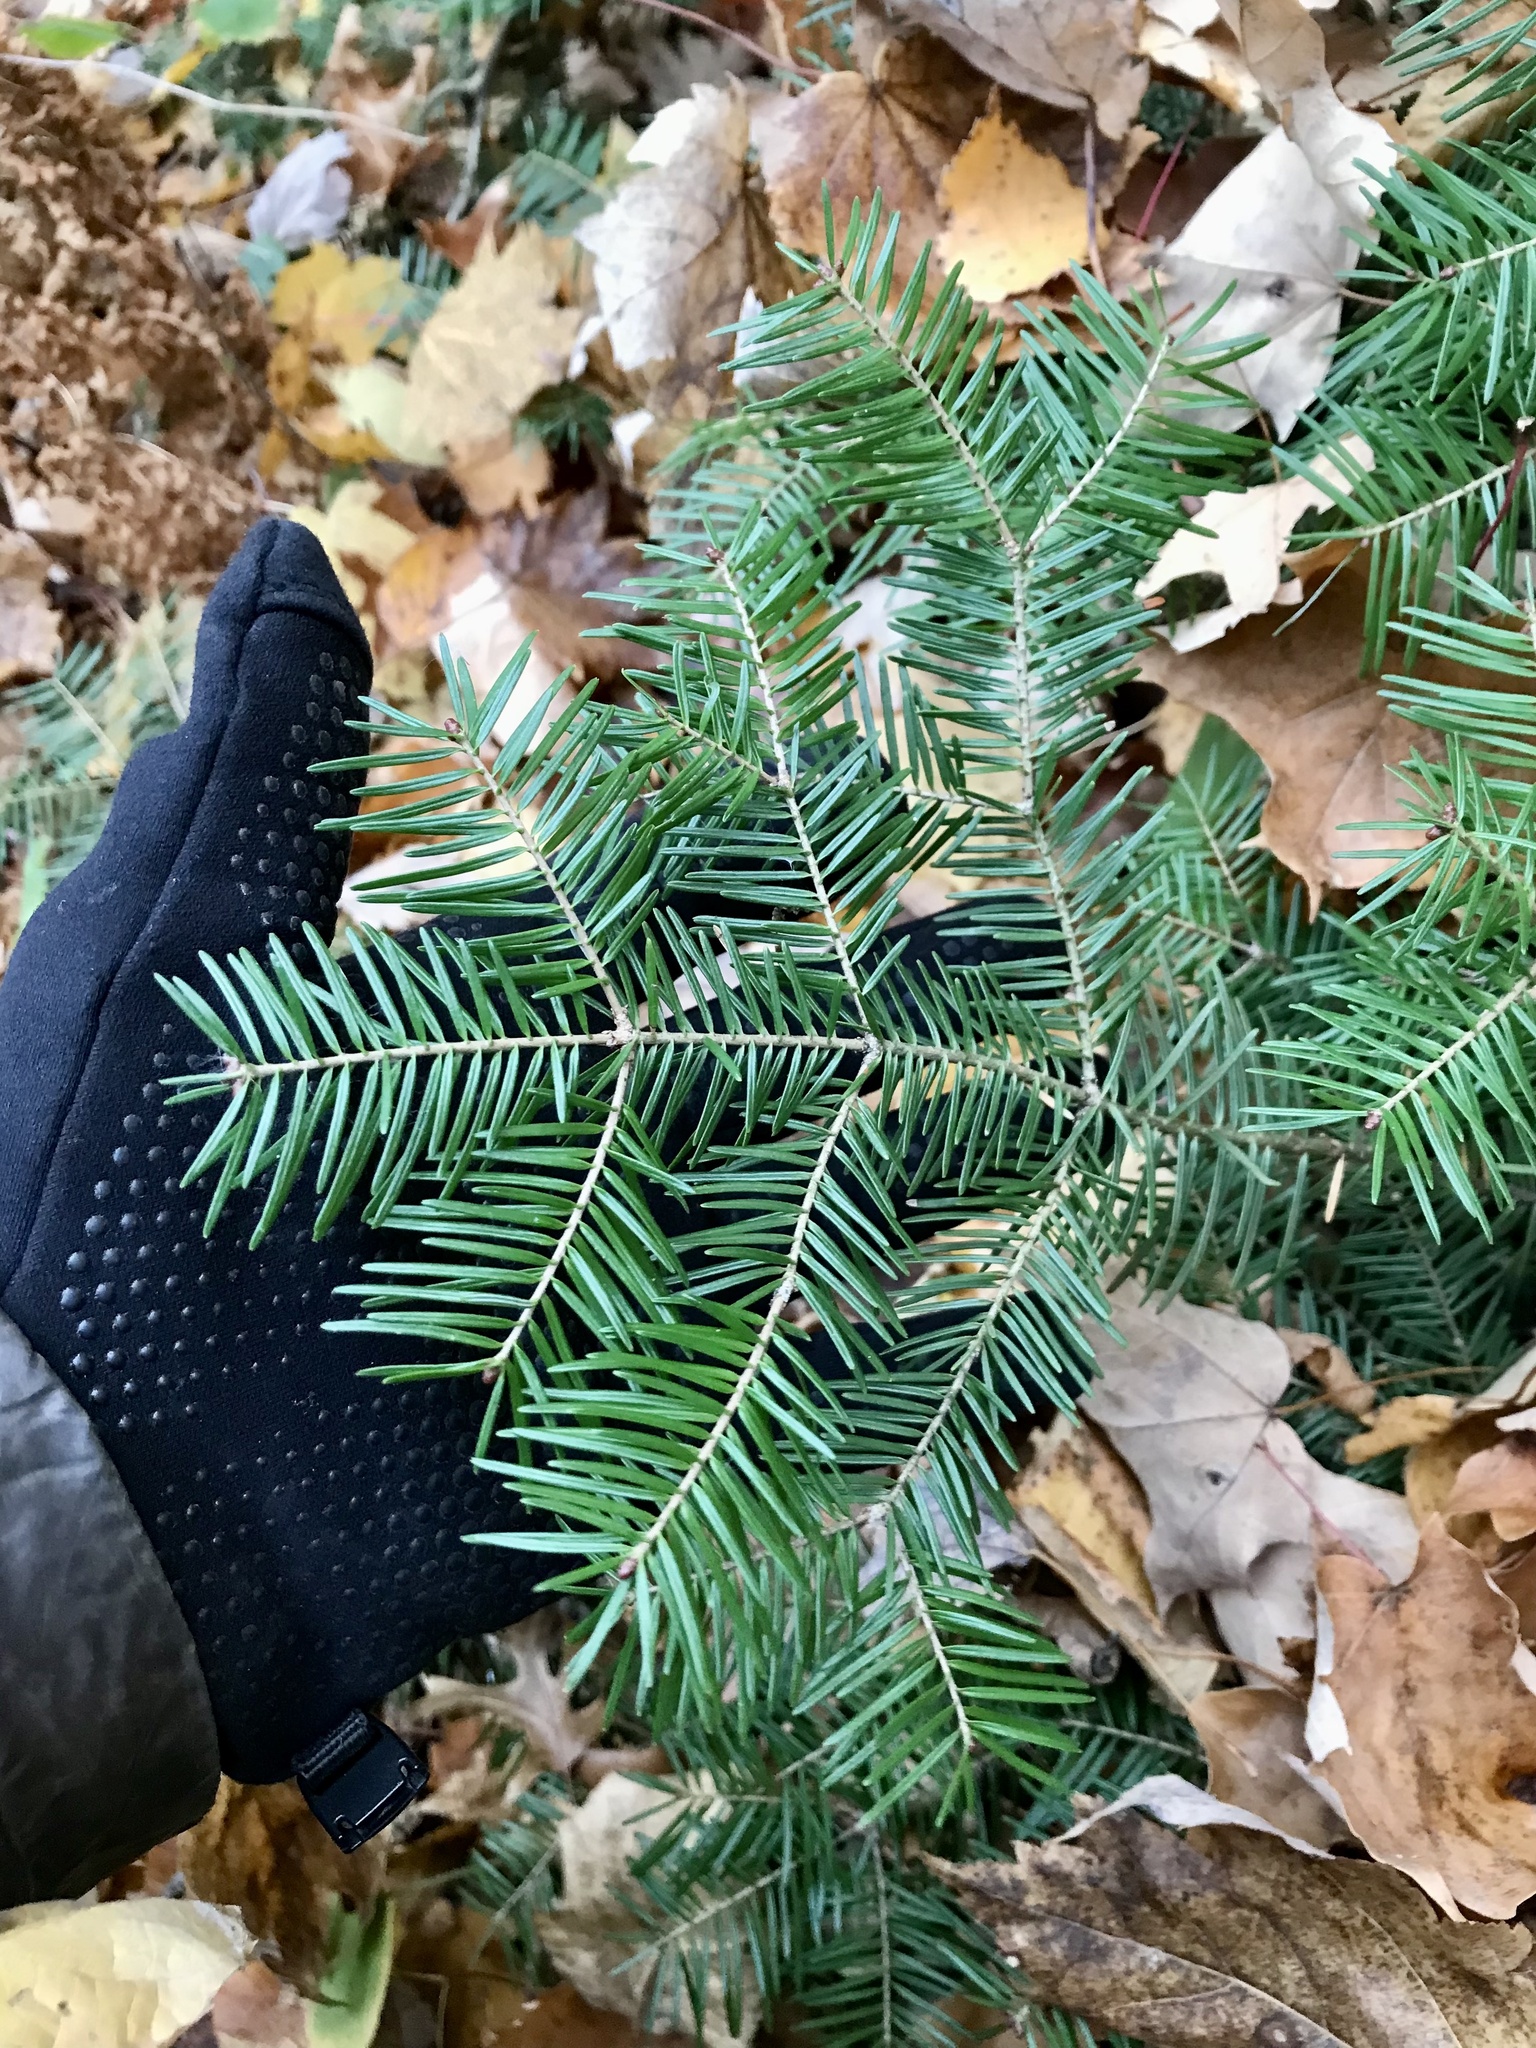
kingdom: Plantae
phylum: Tracheophyta
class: Pinopsida
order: Pinales
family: Pinaceae
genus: Abies
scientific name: Abies balsamea
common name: Balsam fir
